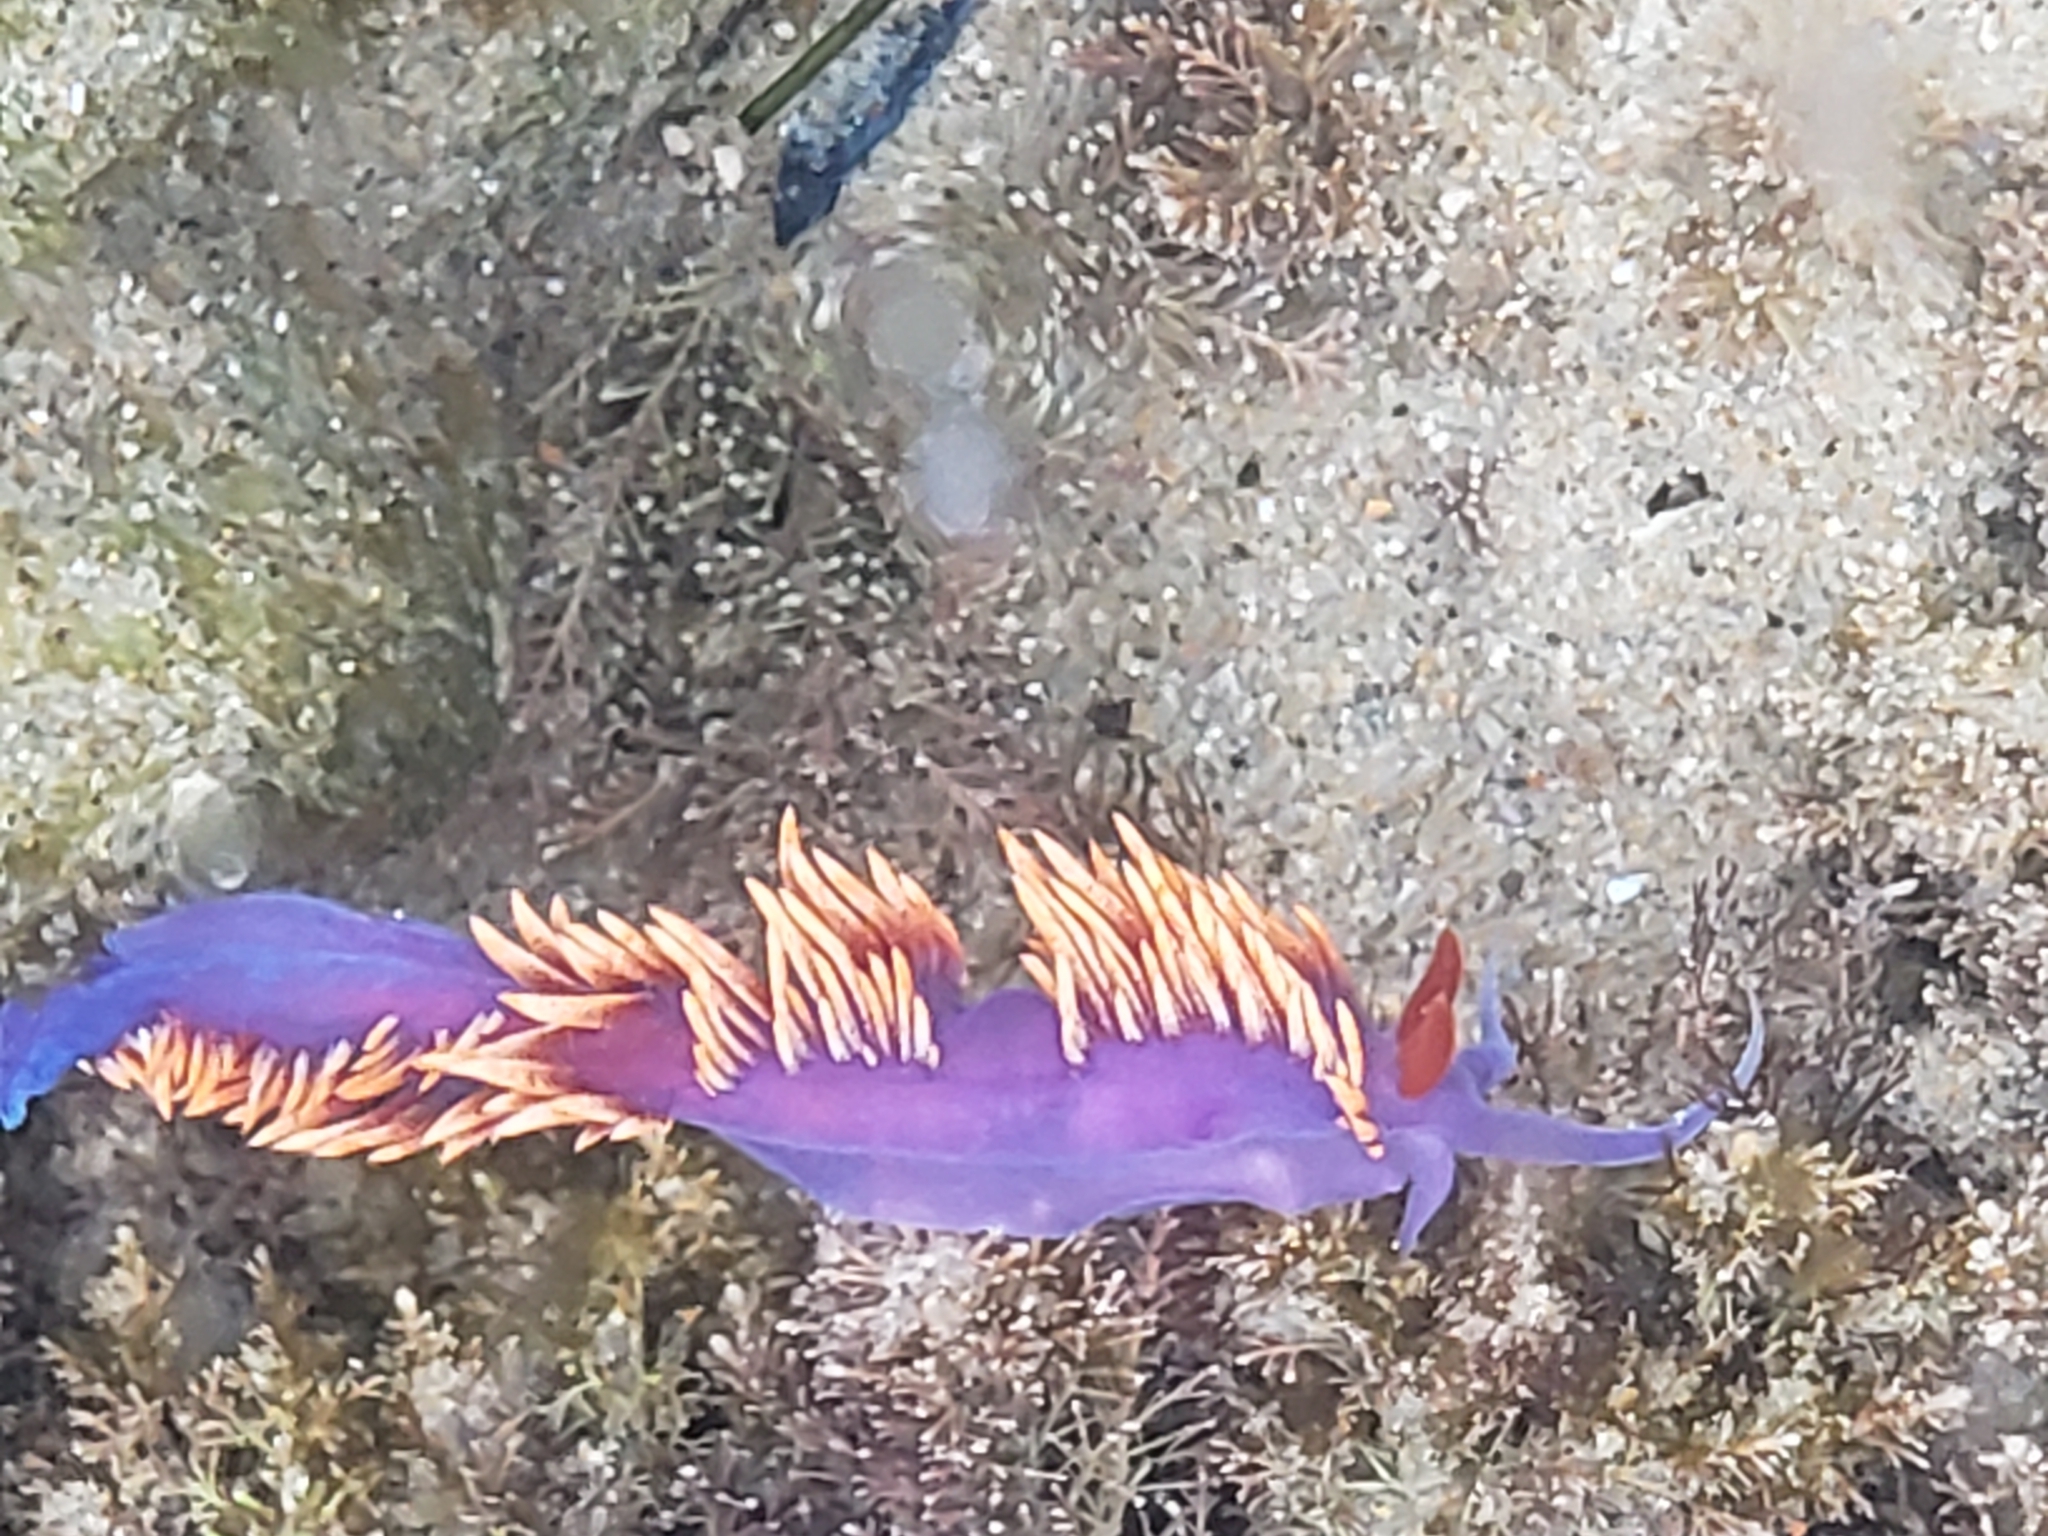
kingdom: Animalia
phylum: Mollusca
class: Gastropoda
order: Nudibranchia
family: Flabellinopsidae
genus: Flabellinopsis
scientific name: Flabellinopsis iodinea
